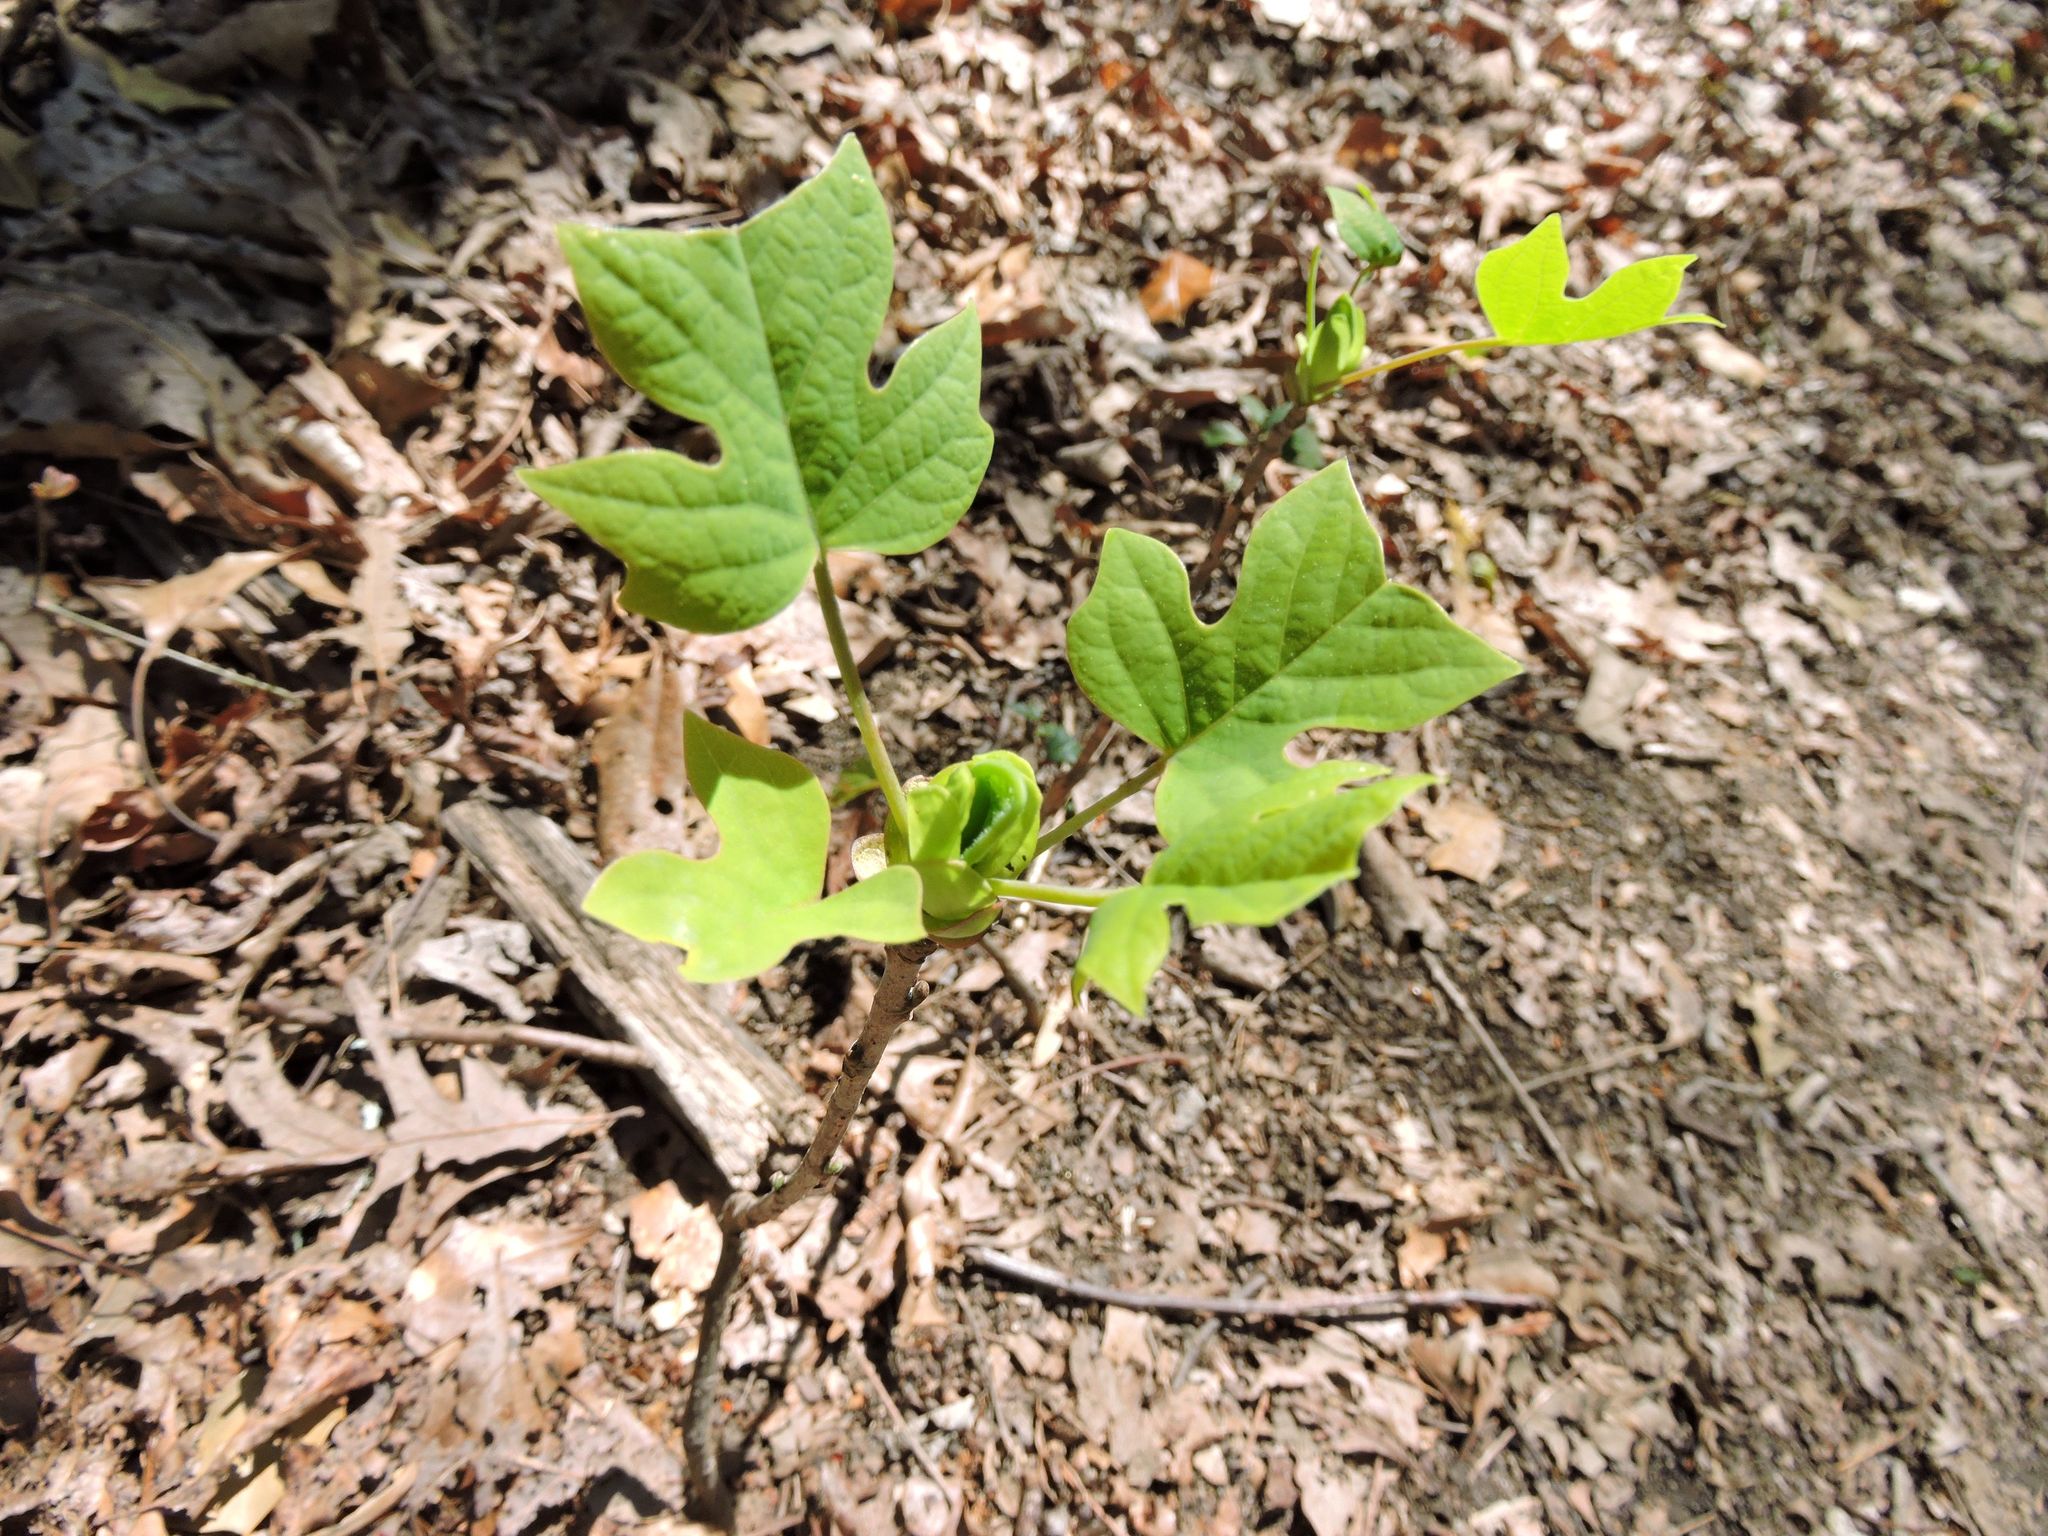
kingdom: Plantae
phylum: Tracheophyta
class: Magnoliopsida
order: Magnoliales
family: Magnoliaceae
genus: Liriodendron
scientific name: Liriodendron tulipifera
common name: Tulip tree
